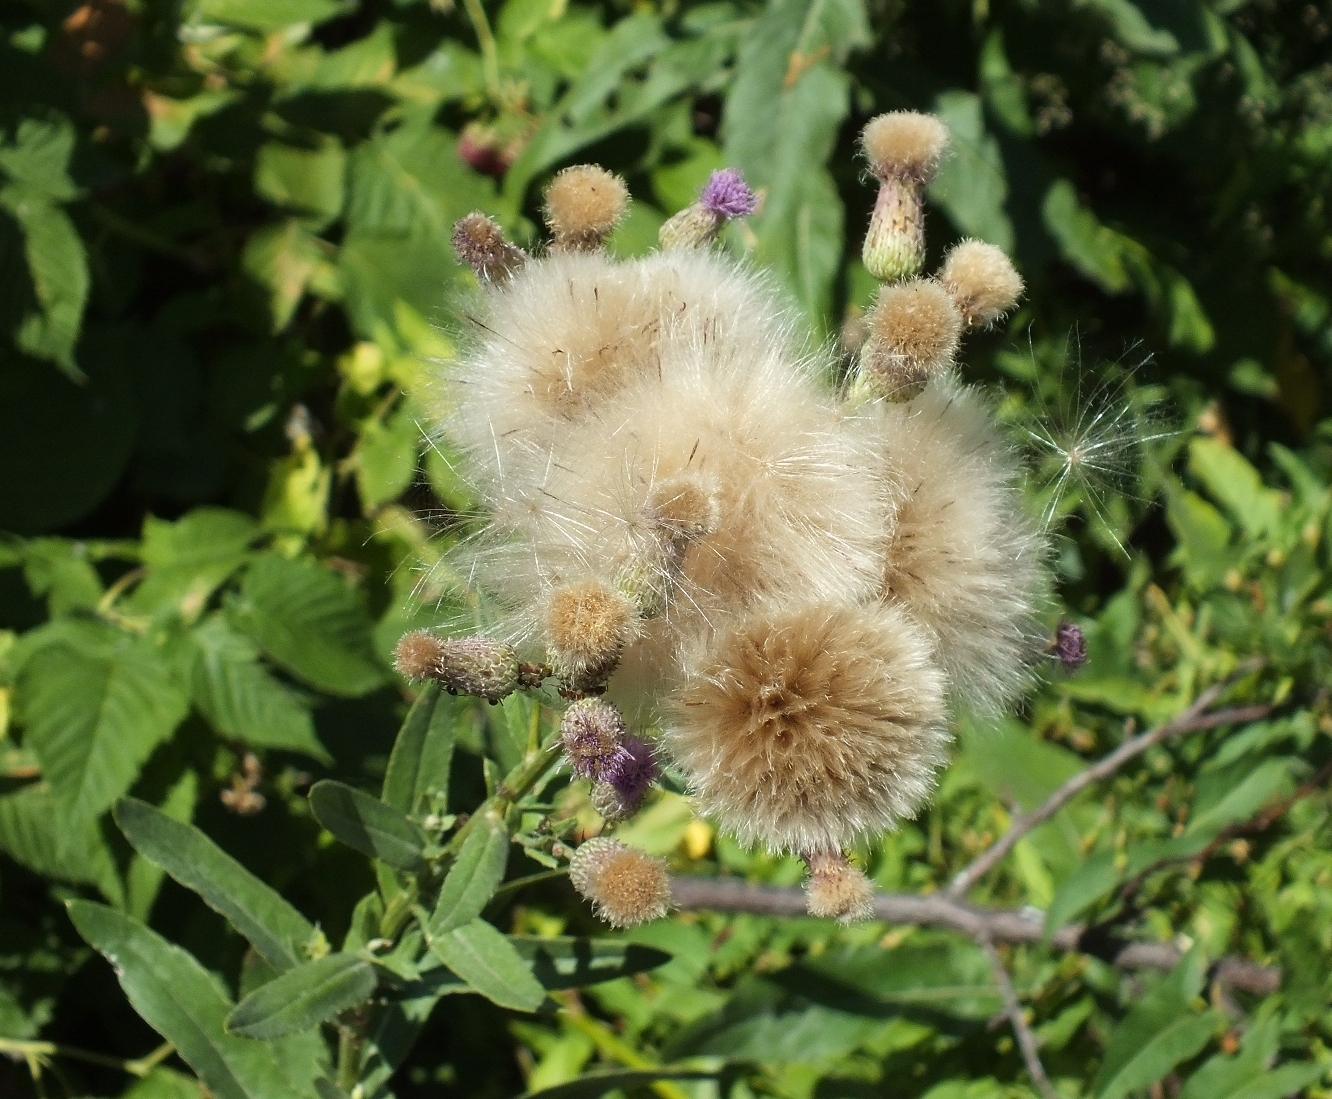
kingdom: Plantae
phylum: Tracheophyta
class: Magnoliopsida
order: Asterales
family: Asteraceae
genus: Cirsium
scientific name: Cirsium arvense
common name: Creeping thistle
